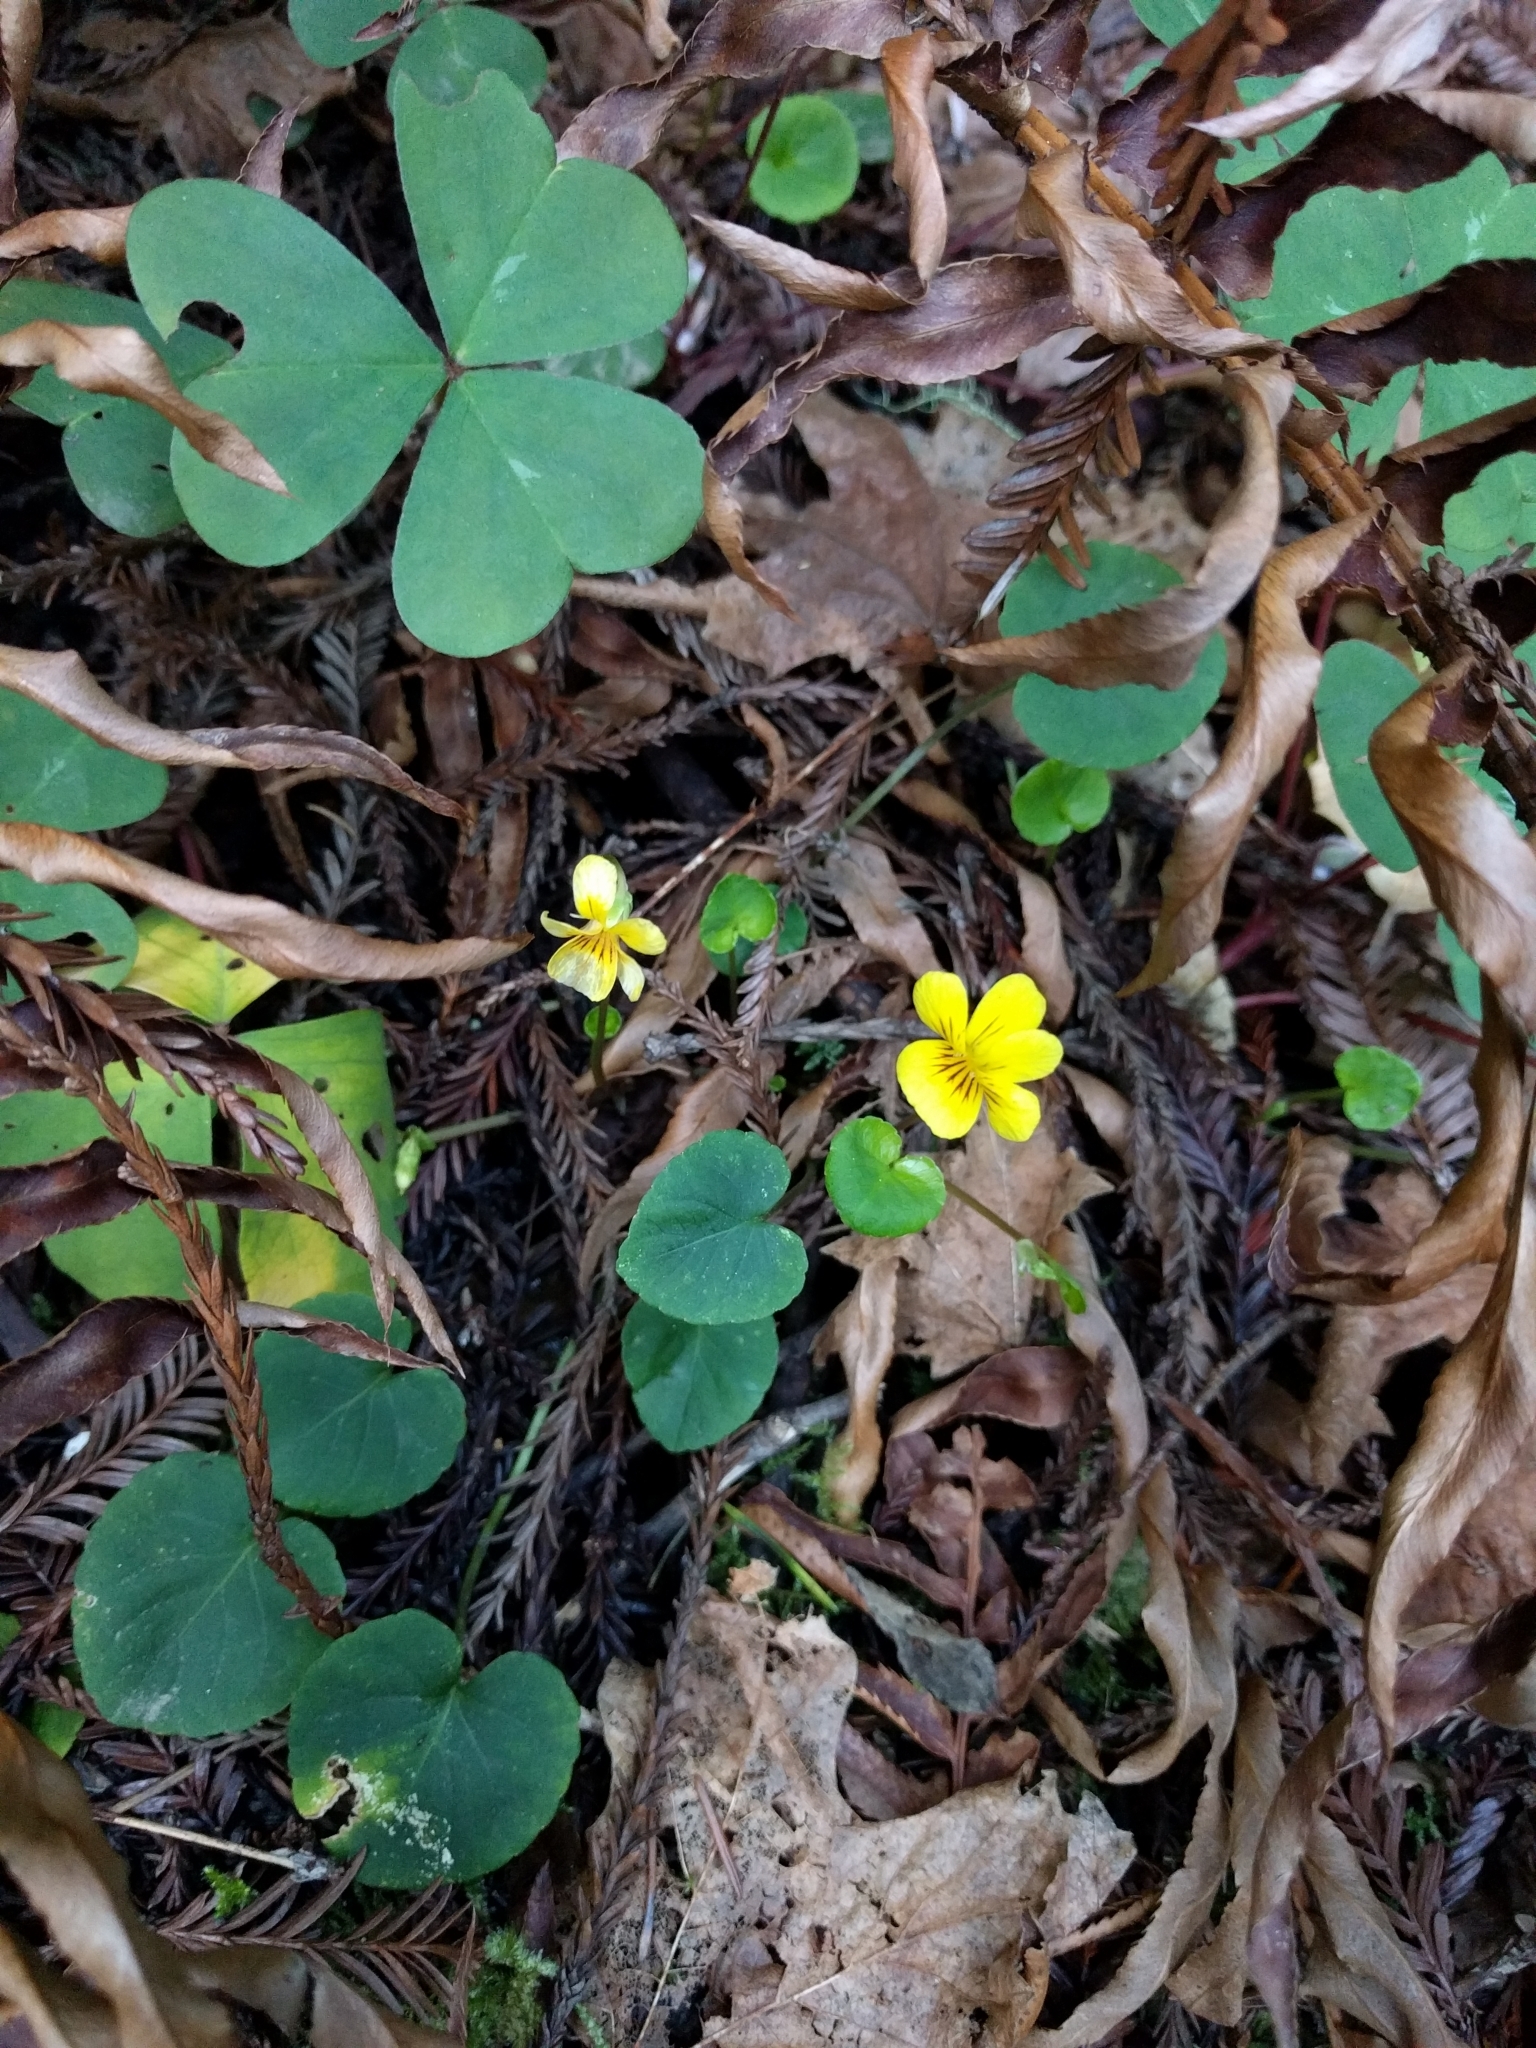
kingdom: Plantae
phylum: Tracheophyta
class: Magnoliopsida
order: Malpighiales
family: Violaceae
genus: Viola
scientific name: Viola sempervirens
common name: Evergreen violet
